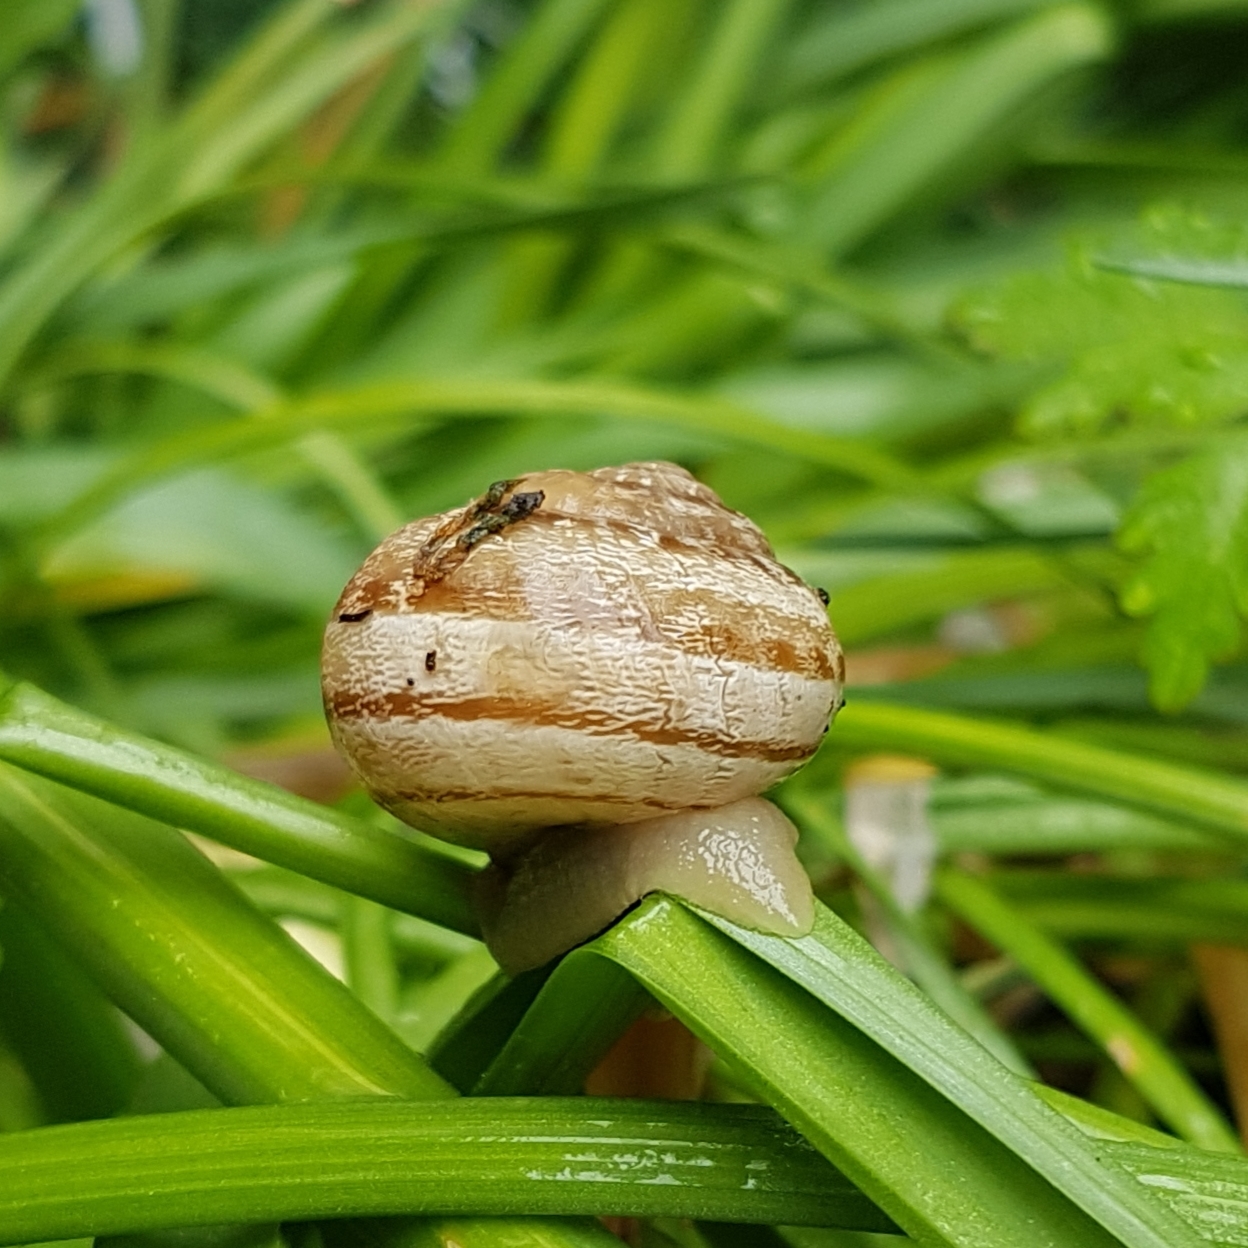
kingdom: Animalia
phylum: Mollusca
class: Gastropoda
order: Stylommatophora
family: Helicidae
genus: Eobania
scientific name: Eobania vermiculata
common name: Chocolateband snail
